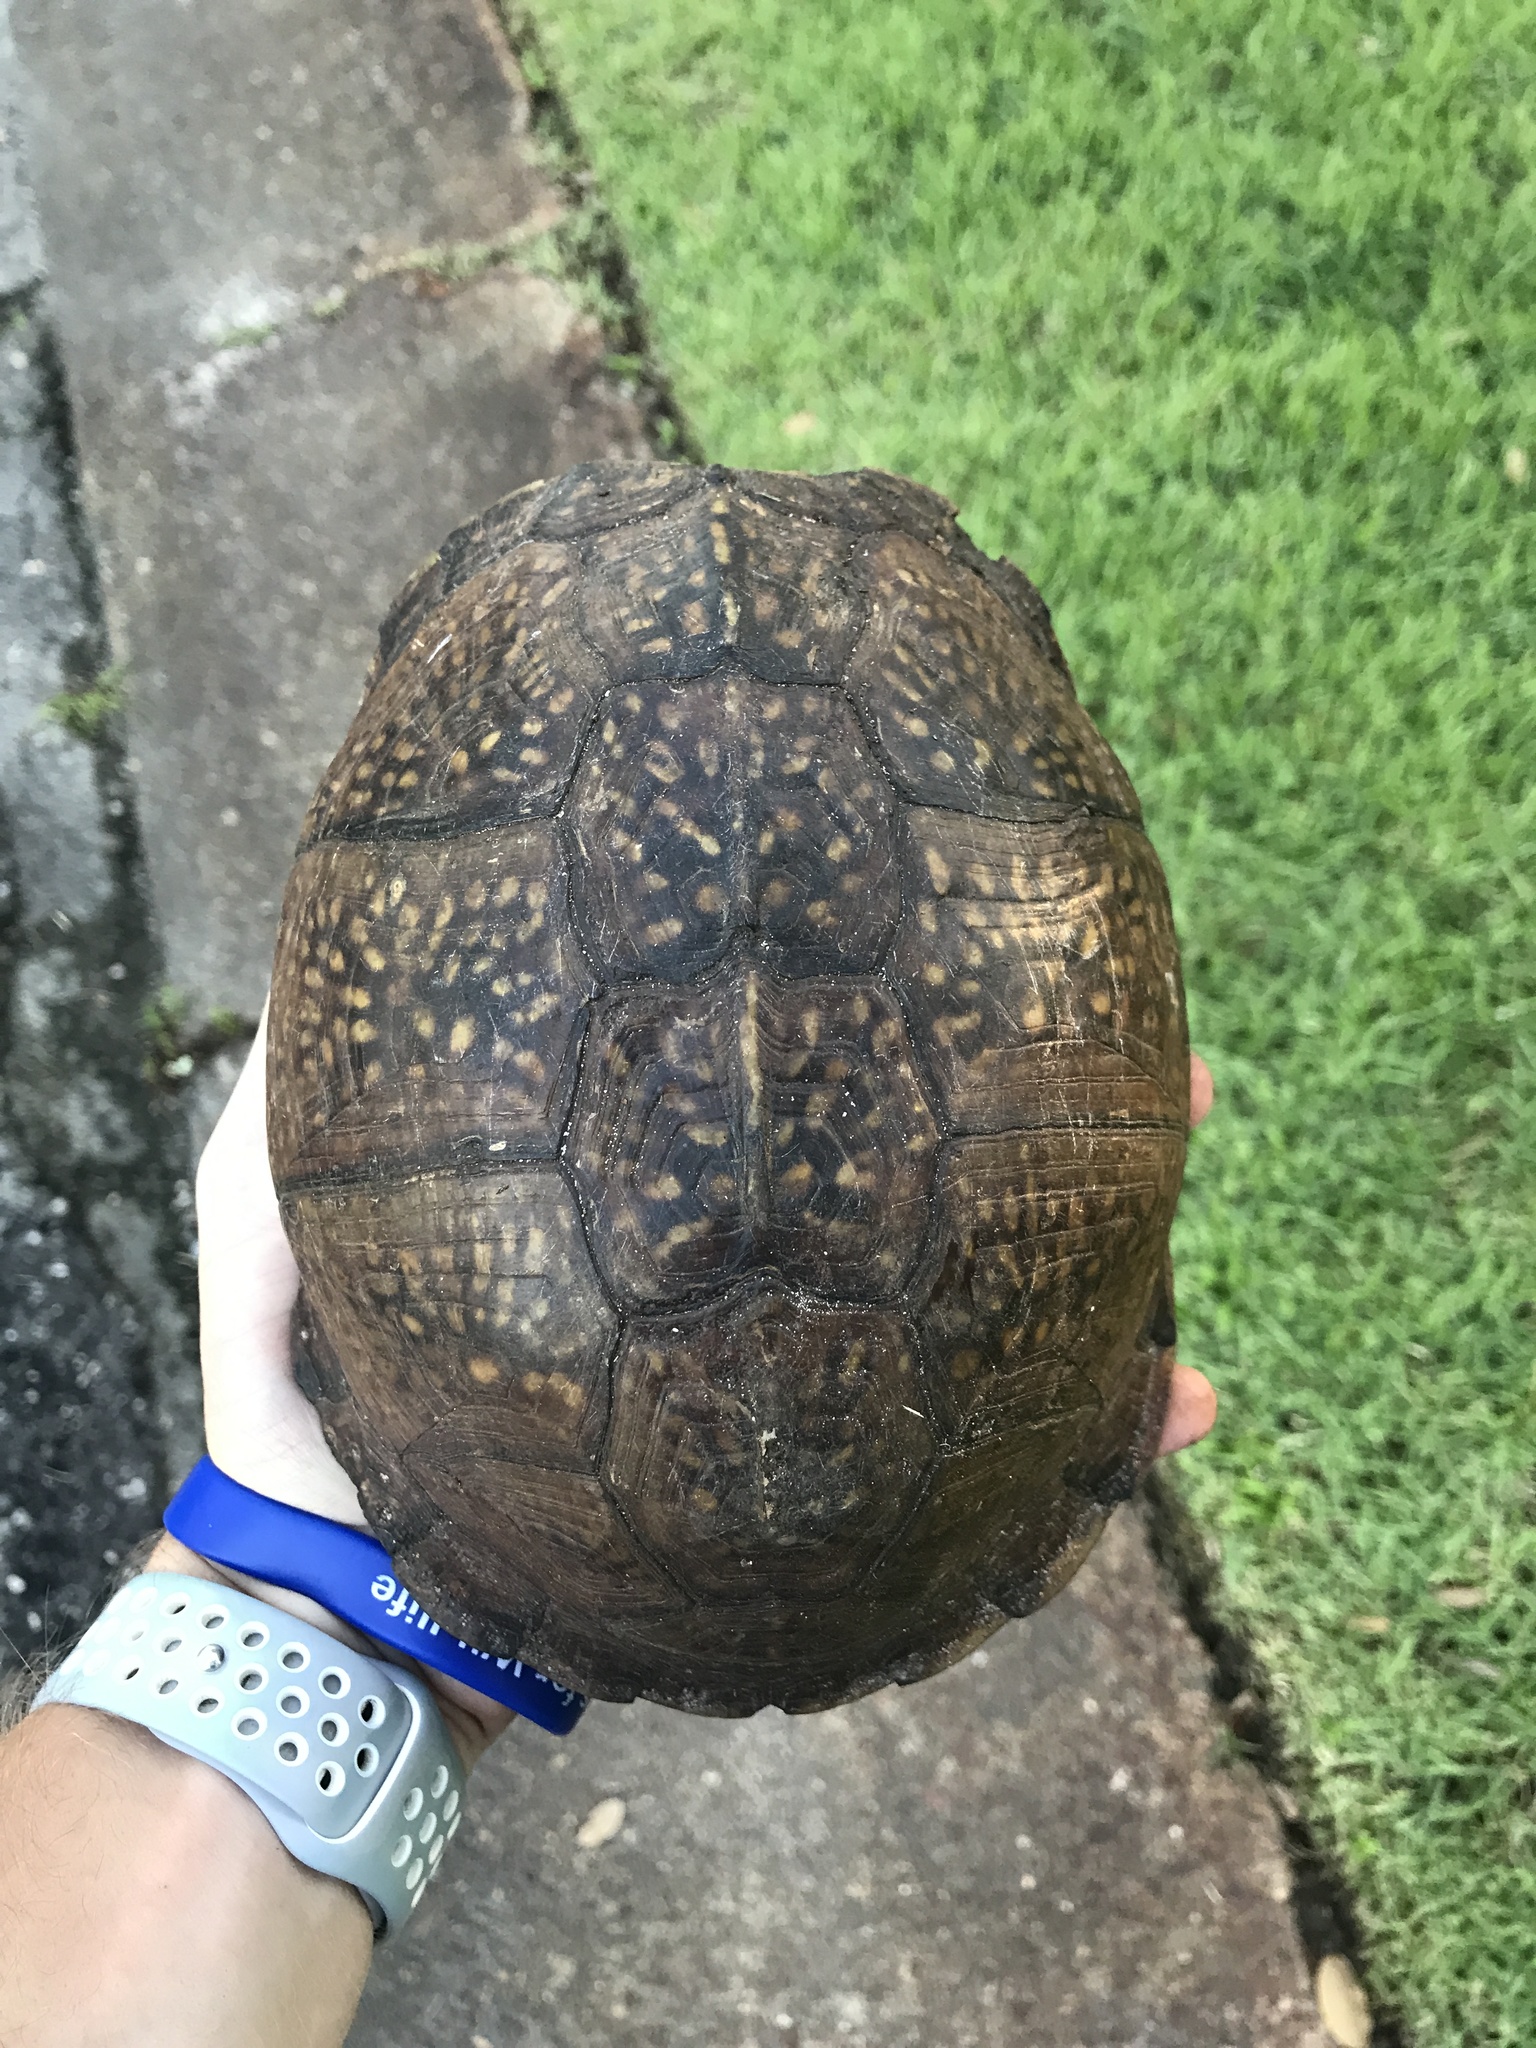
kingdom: Animalia
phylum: Chordata
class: Testudines
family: Emydidae
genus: Terrapene
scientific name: Terrapene carolina
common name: Common box turtle
